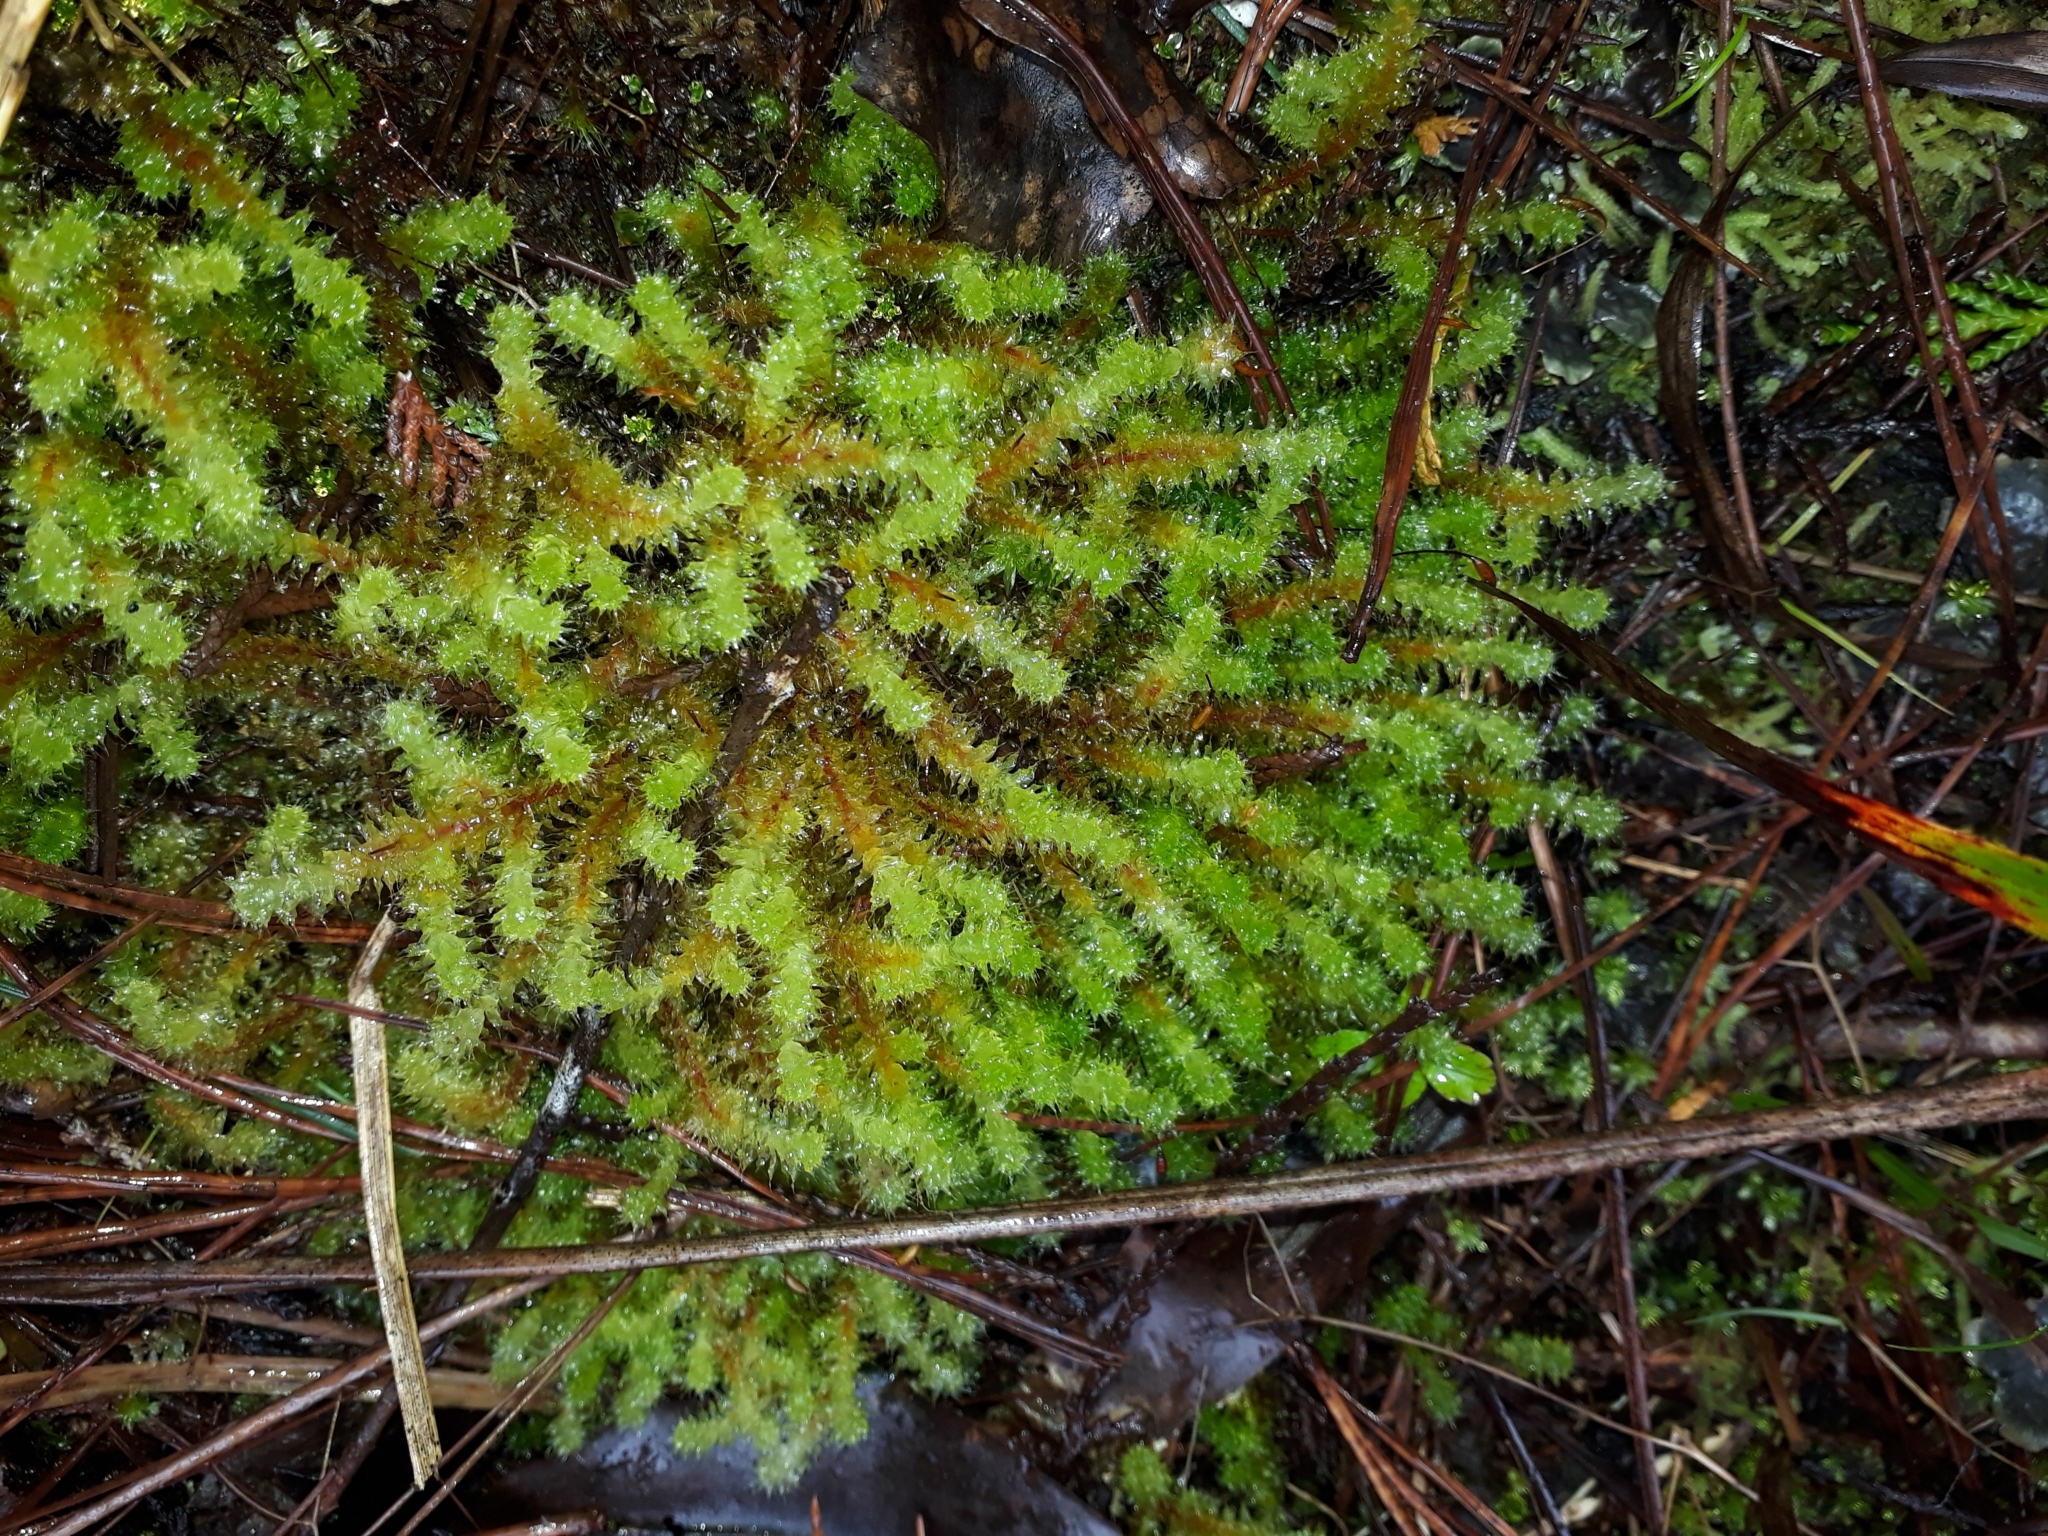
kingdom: Plantae
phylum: Bryophyta
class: Bryopsida
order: Ptychomniales
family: Ptychomniaceae
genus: Ptychomnion
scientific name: Ptychomnion aciculare
